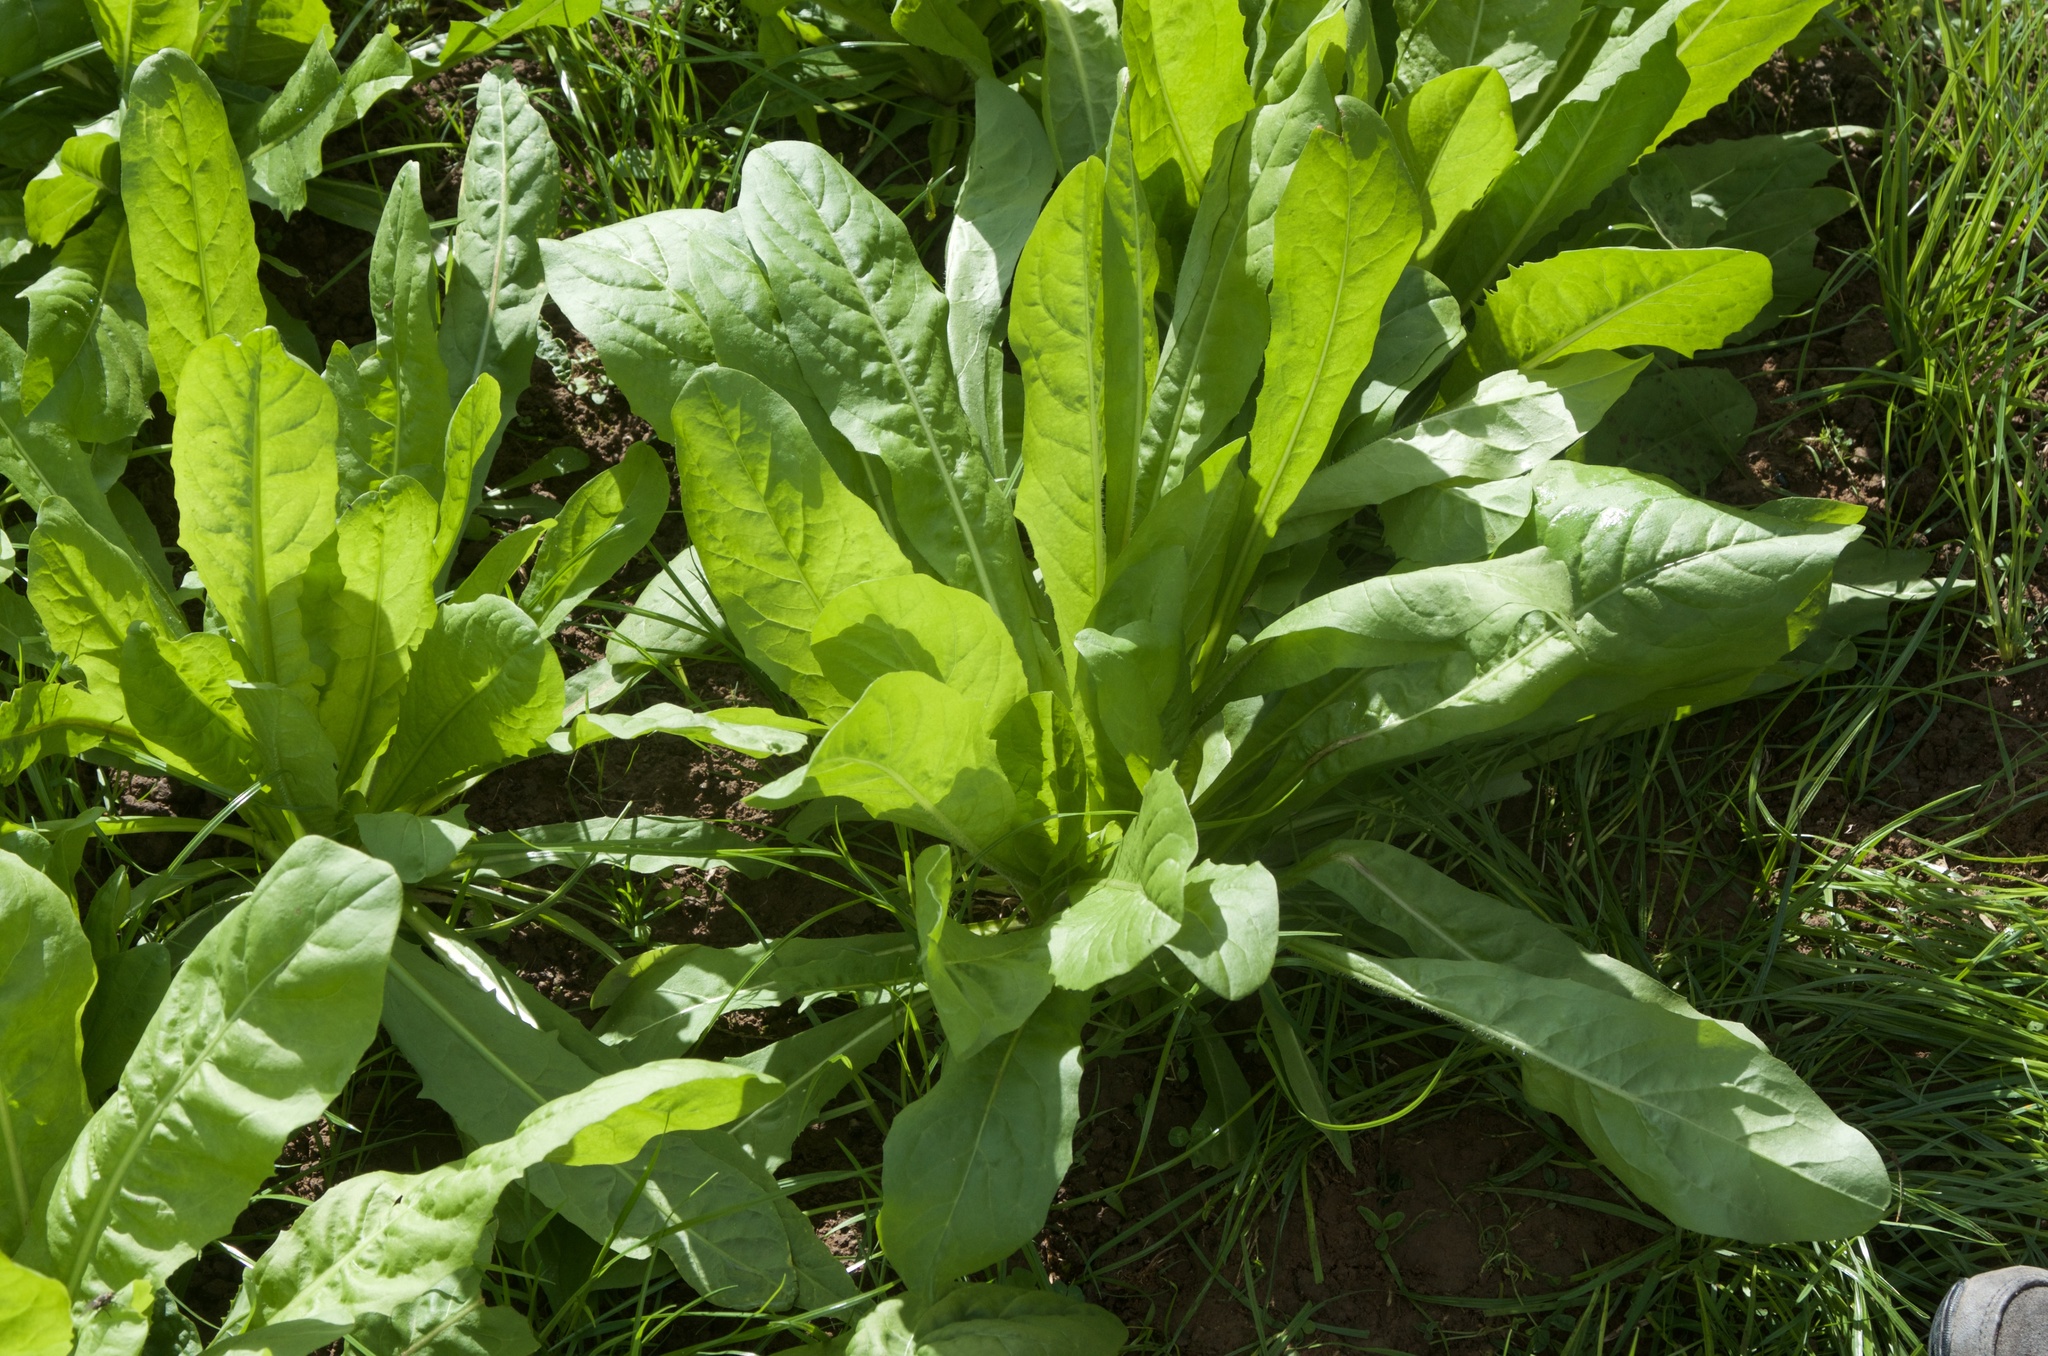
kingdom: Plantae
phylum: Tracheophyta
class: Magnoliopsida
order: Asterales
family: Asteraceae
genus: Taraxacum
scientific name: Taraxacum officinale
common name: Common dandelion
